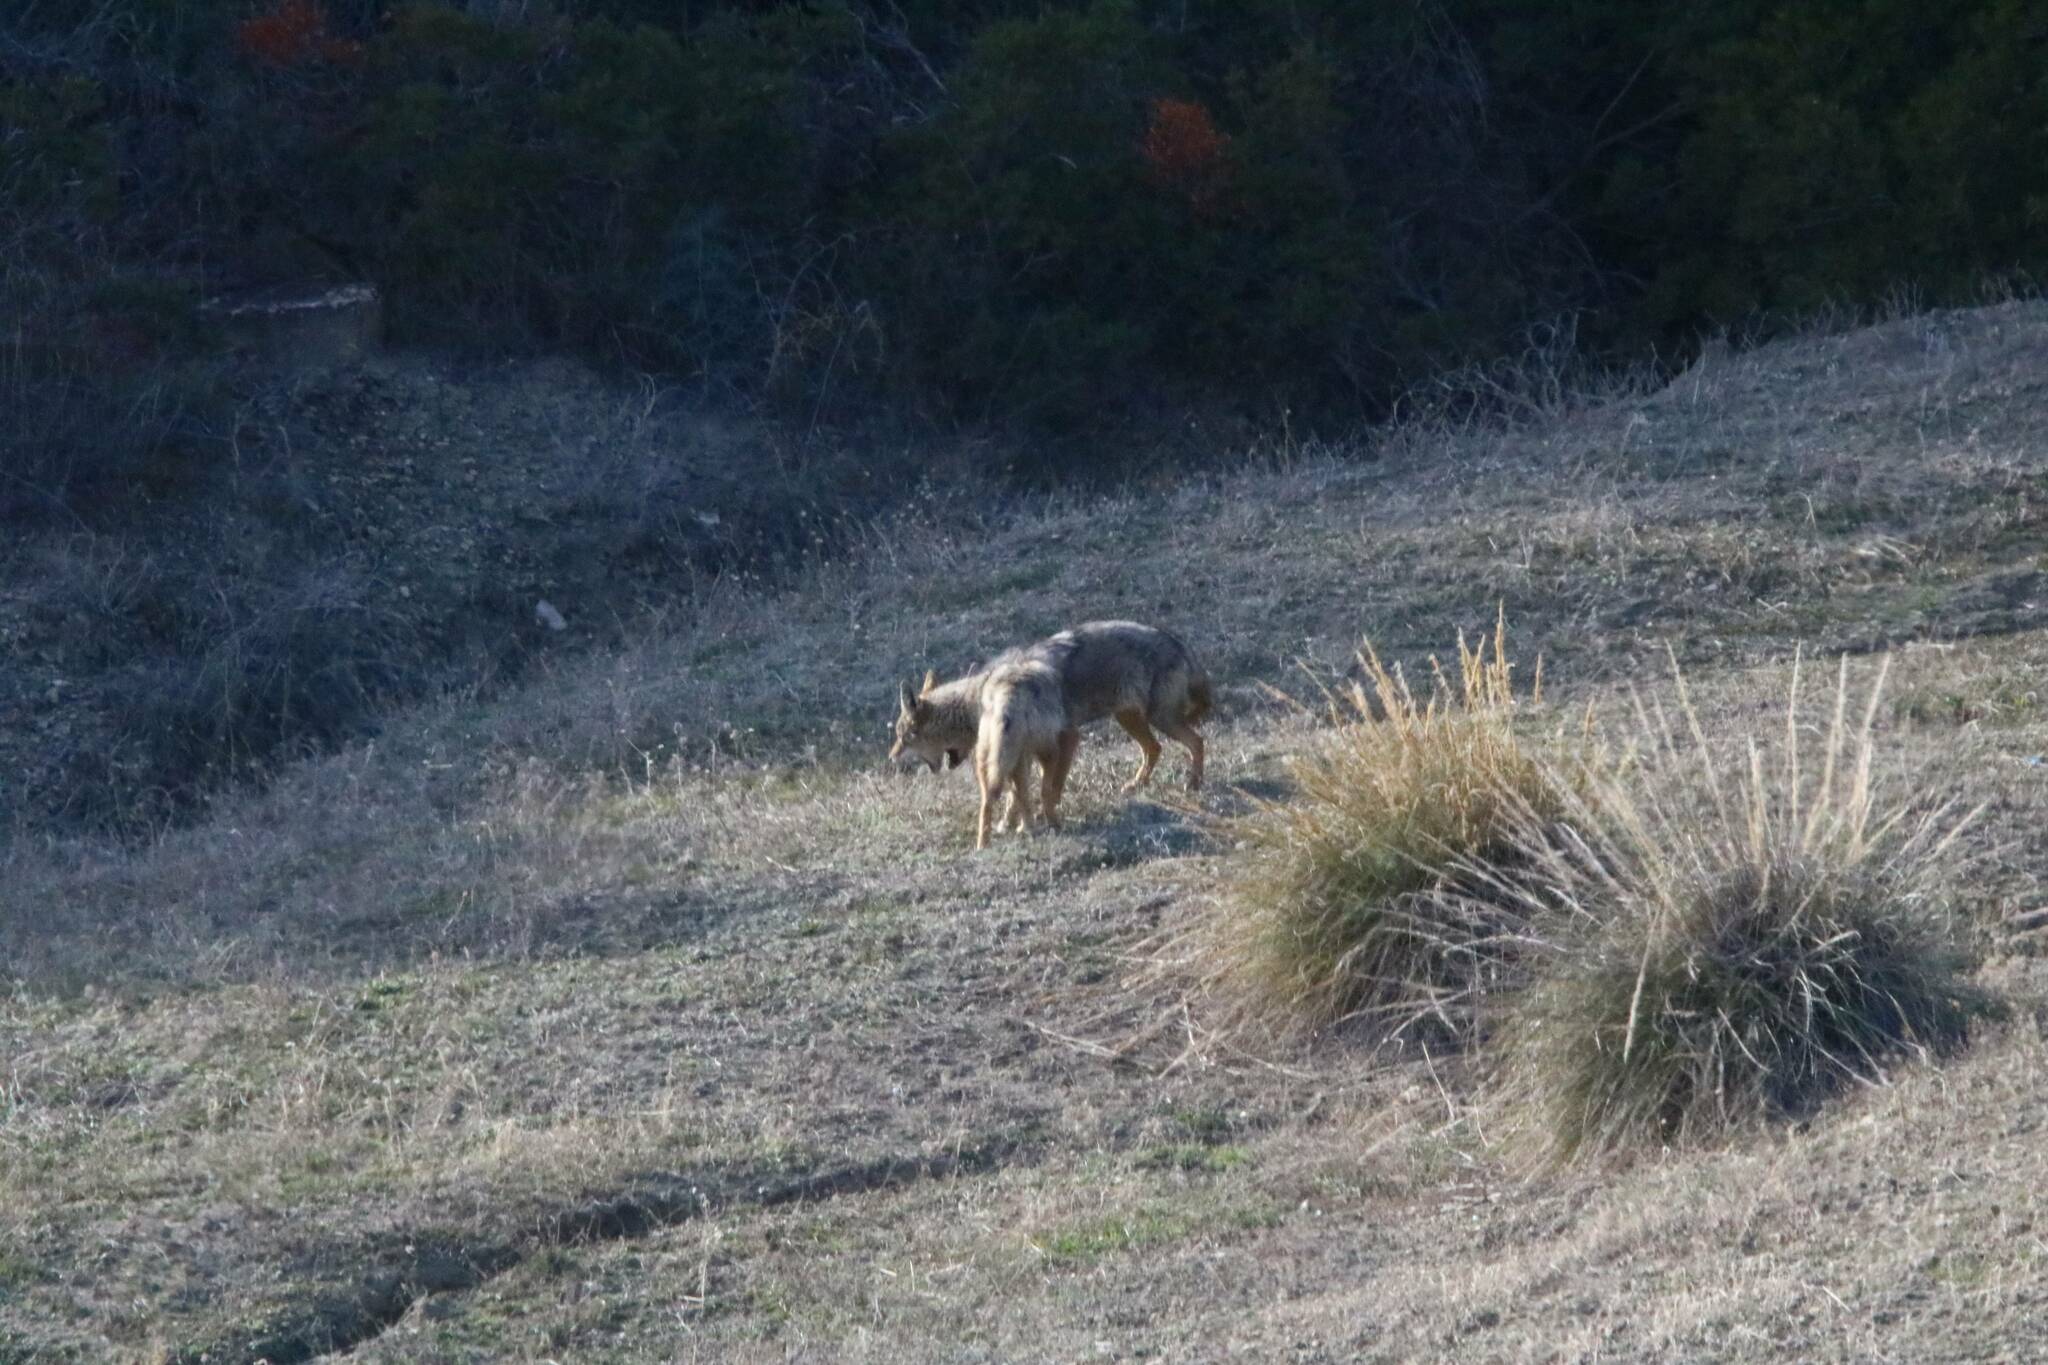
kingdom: Animalia
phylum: Chordata
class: Mammalia
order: Carnivora
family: Canidae
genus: Canis
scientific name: Canis lupaster
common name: African golden wolf
